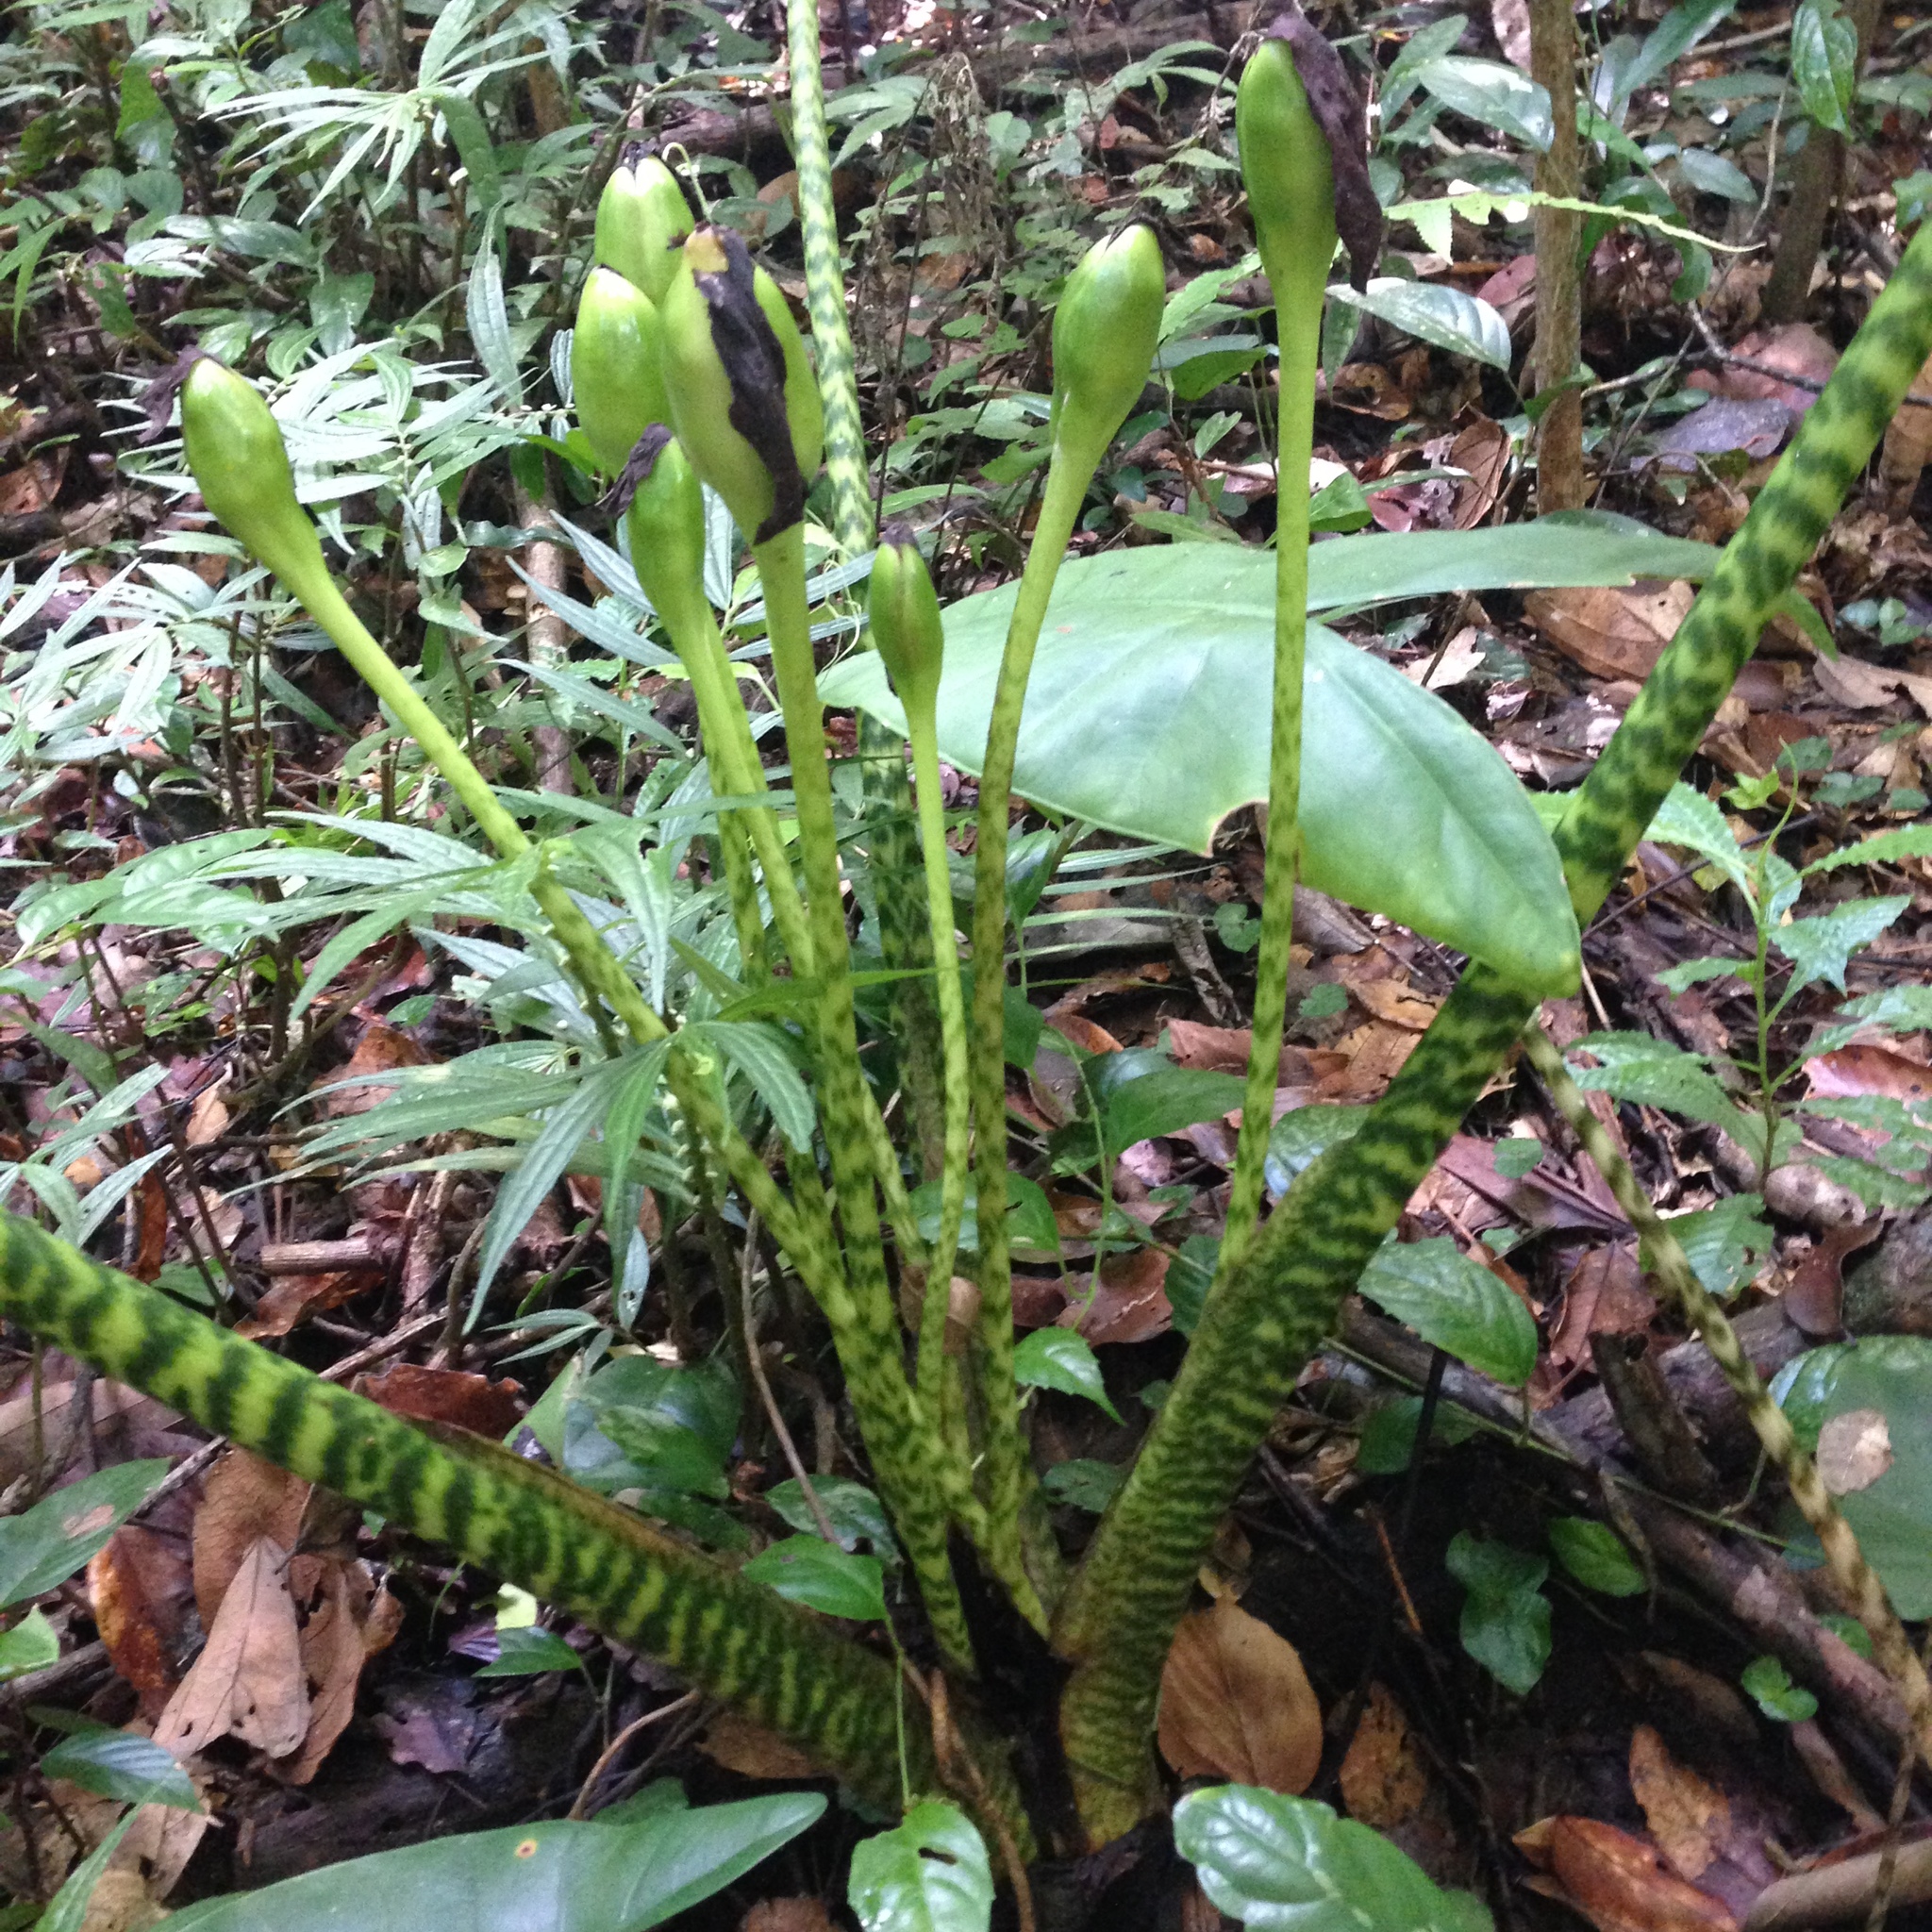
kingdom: Plantae
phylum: Tracheophyta
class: Liliopsida
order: Alismatales
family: Araceae
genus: Alocasia
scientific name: Alocasia zebrina
